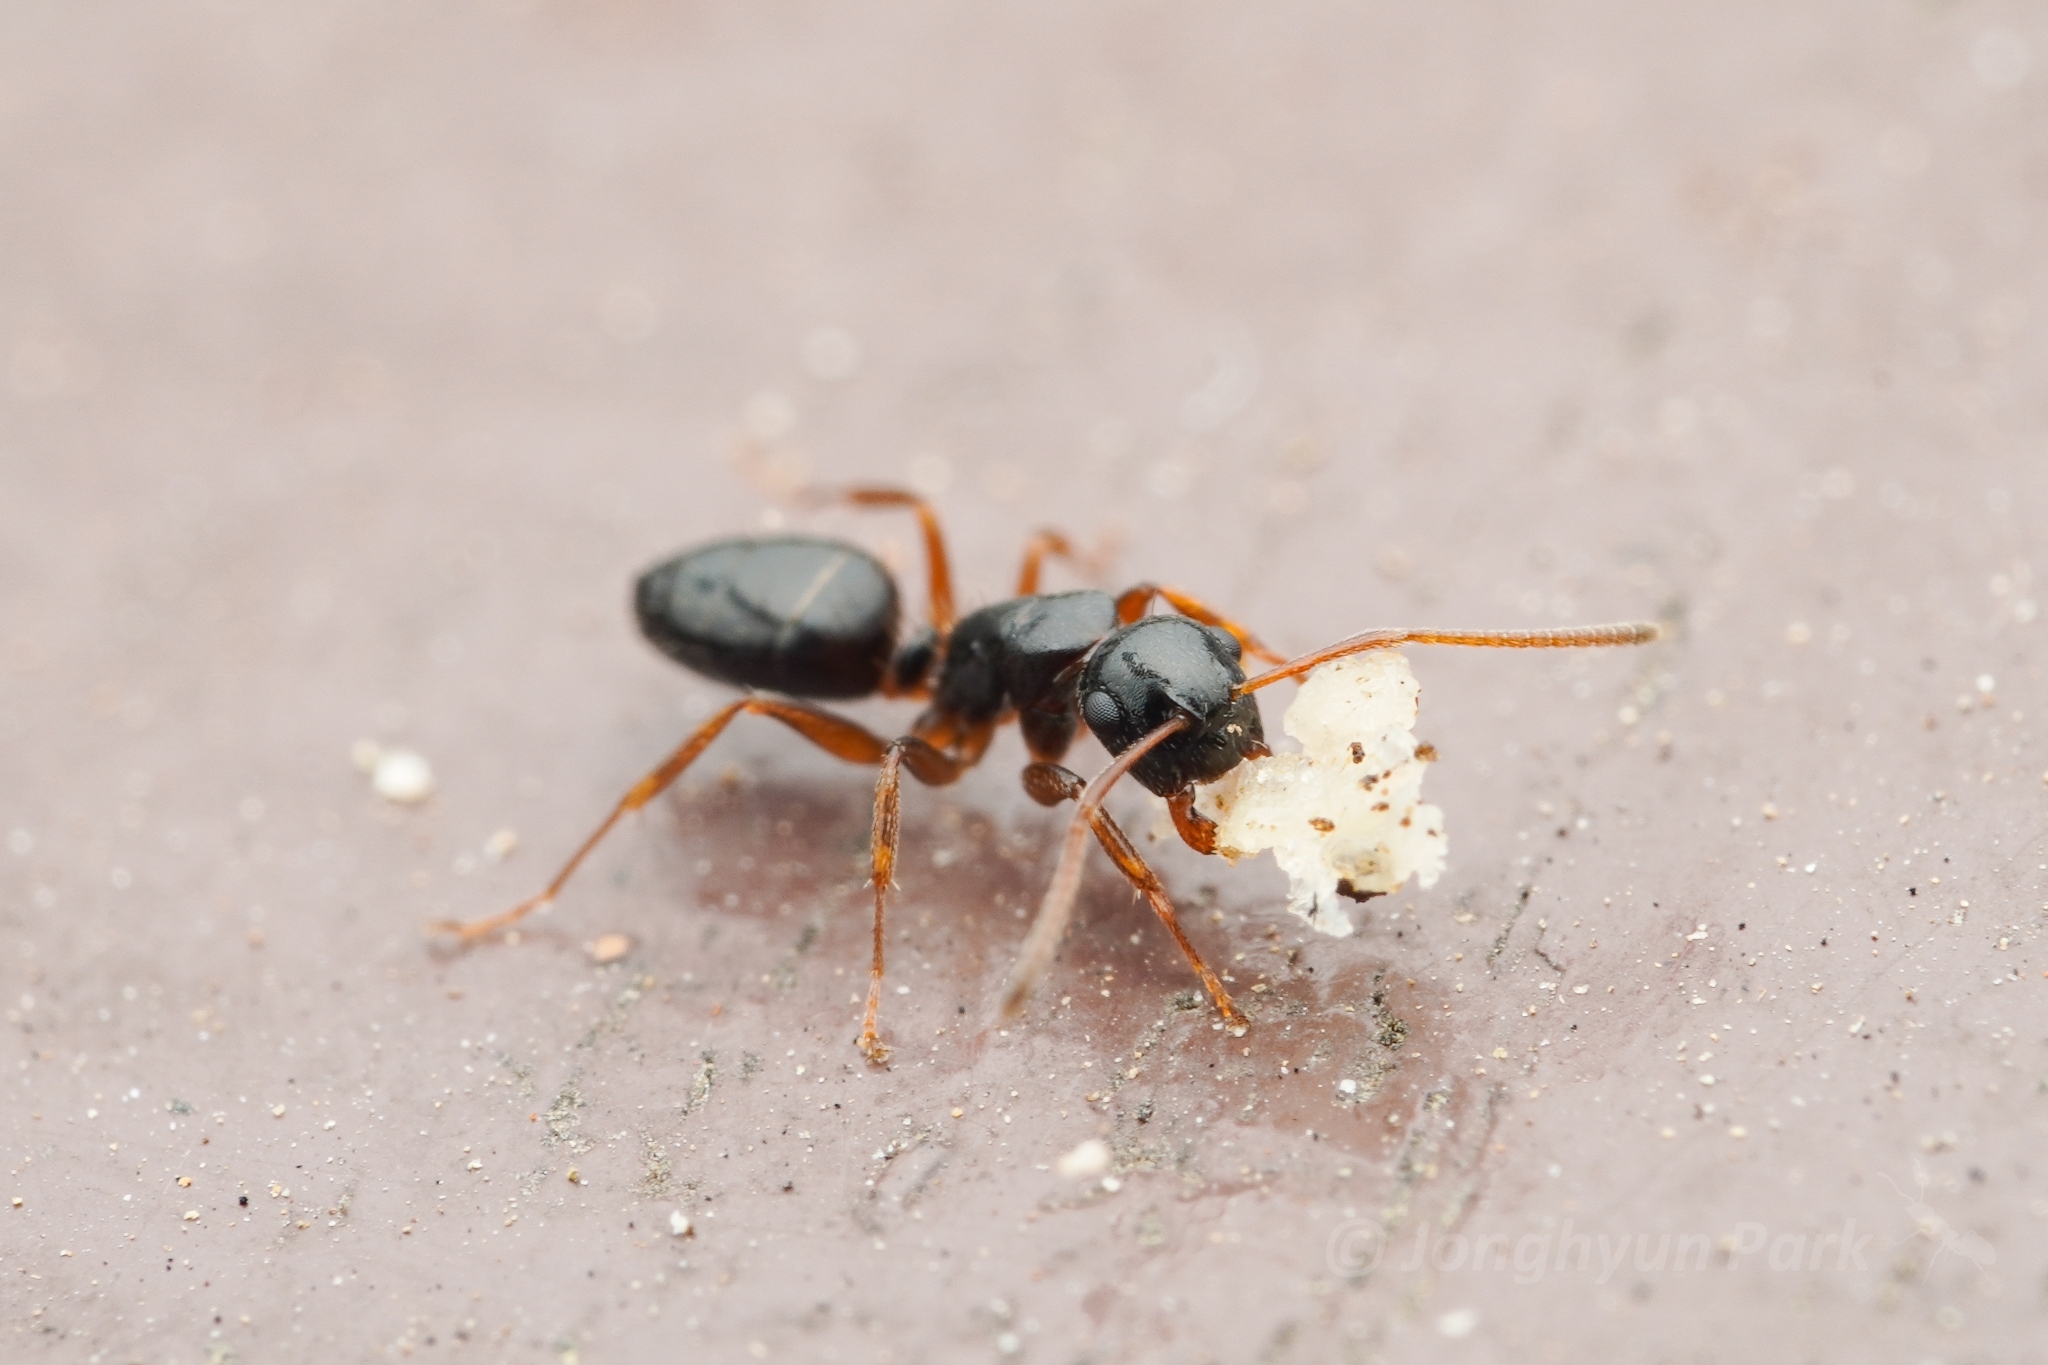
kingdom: Animalia
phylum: Arthropoda
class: Insecta
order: Hymenoptera
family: Formicidae
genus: Camponotus
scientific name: Camponotus itoi
